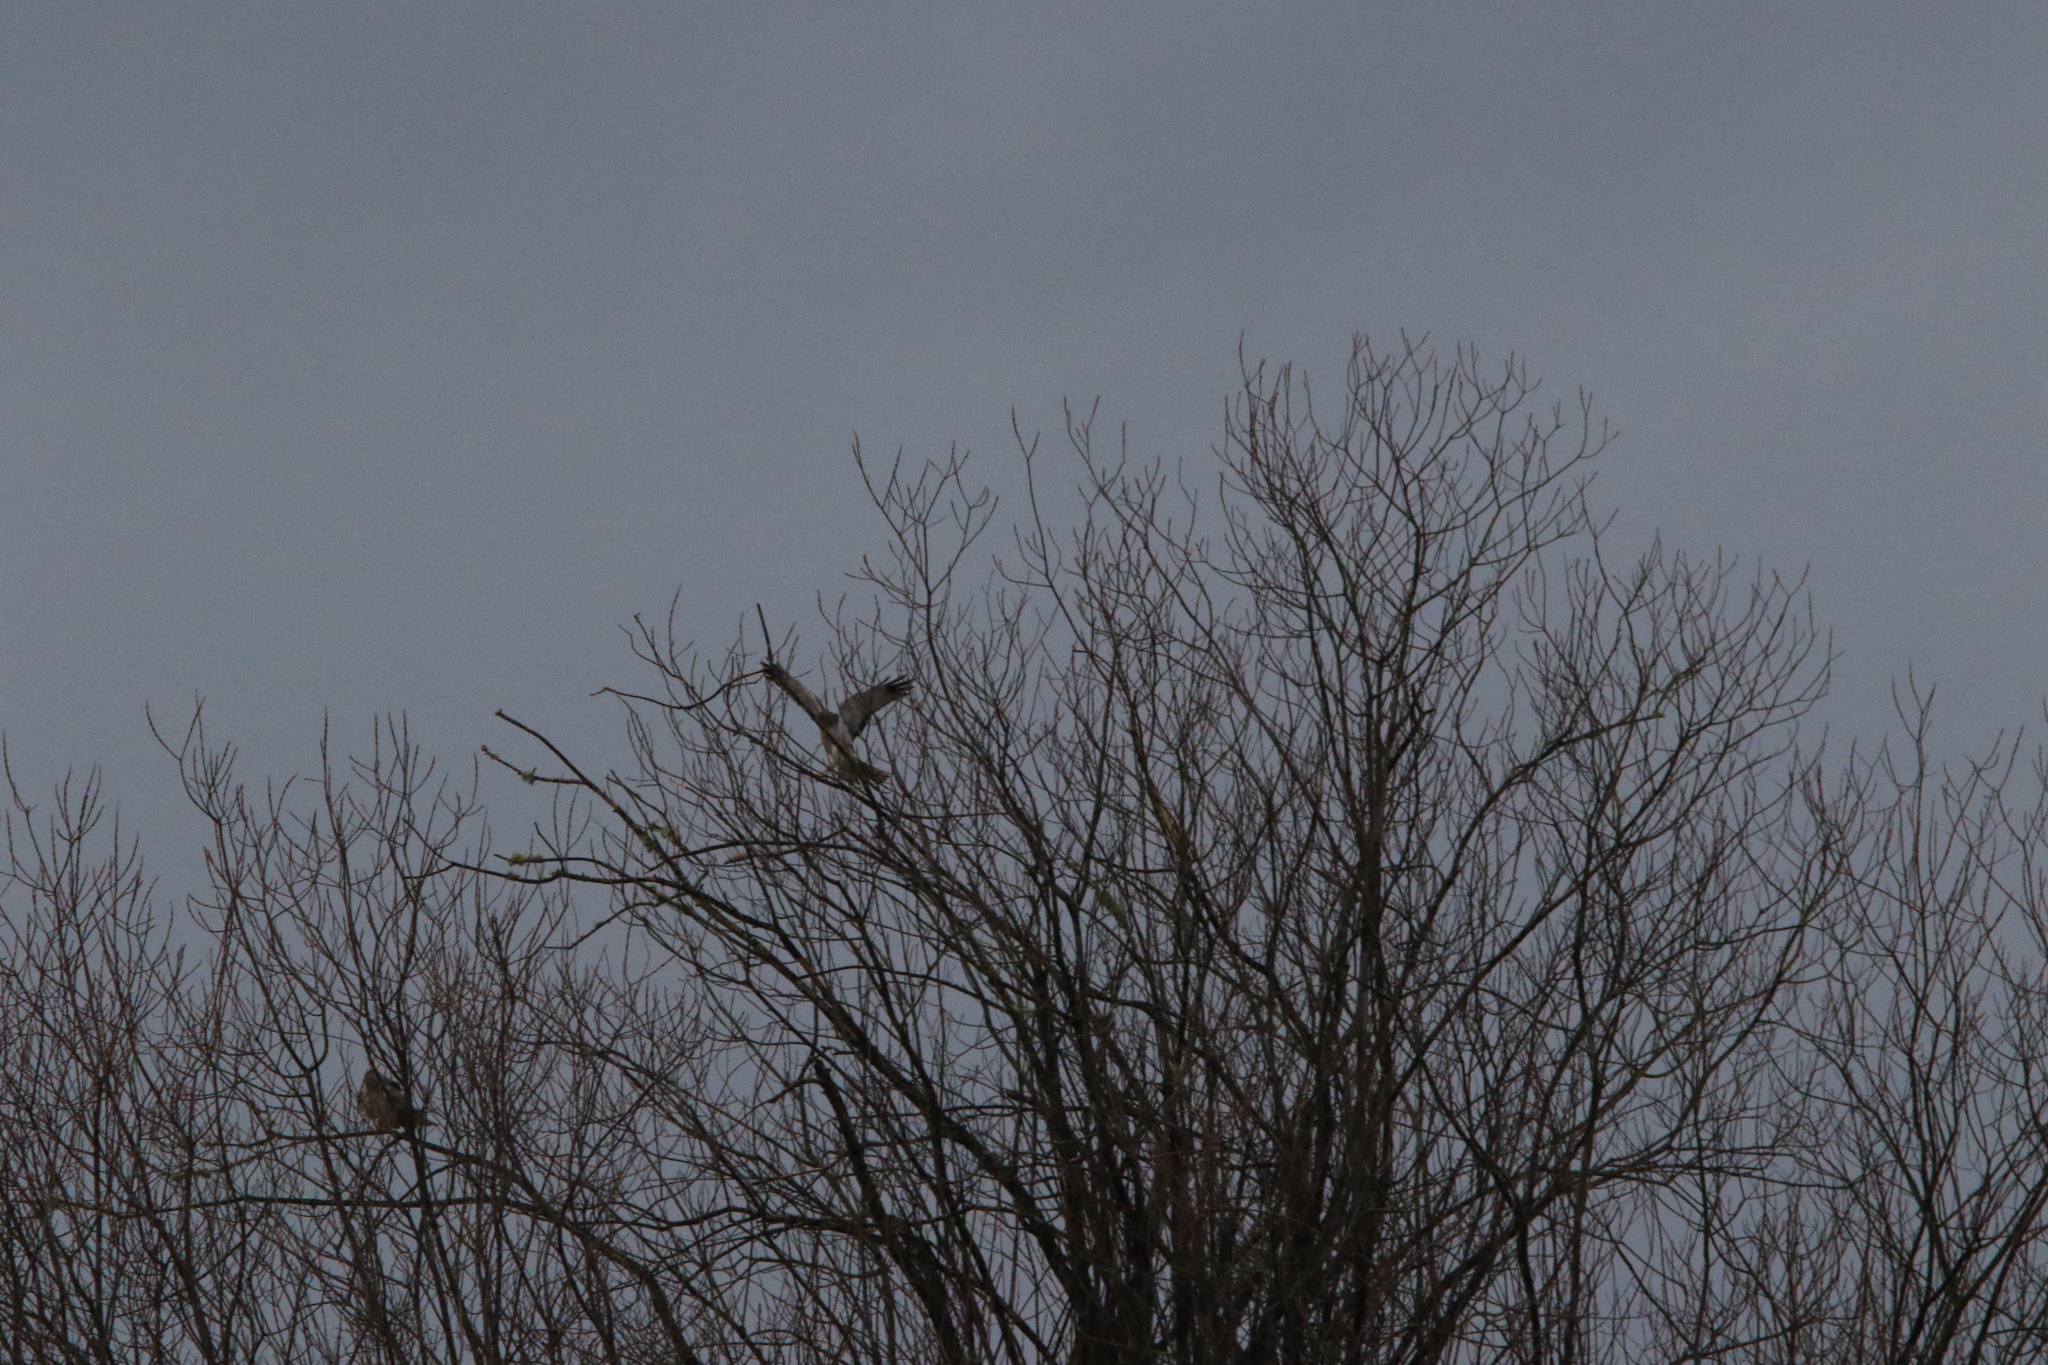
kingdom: Animalia
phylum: Chordata
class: Aves
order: Accipitriformes
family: Accipitridae
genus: Circus
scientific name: Circus cyaneus
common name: Hen harrier
